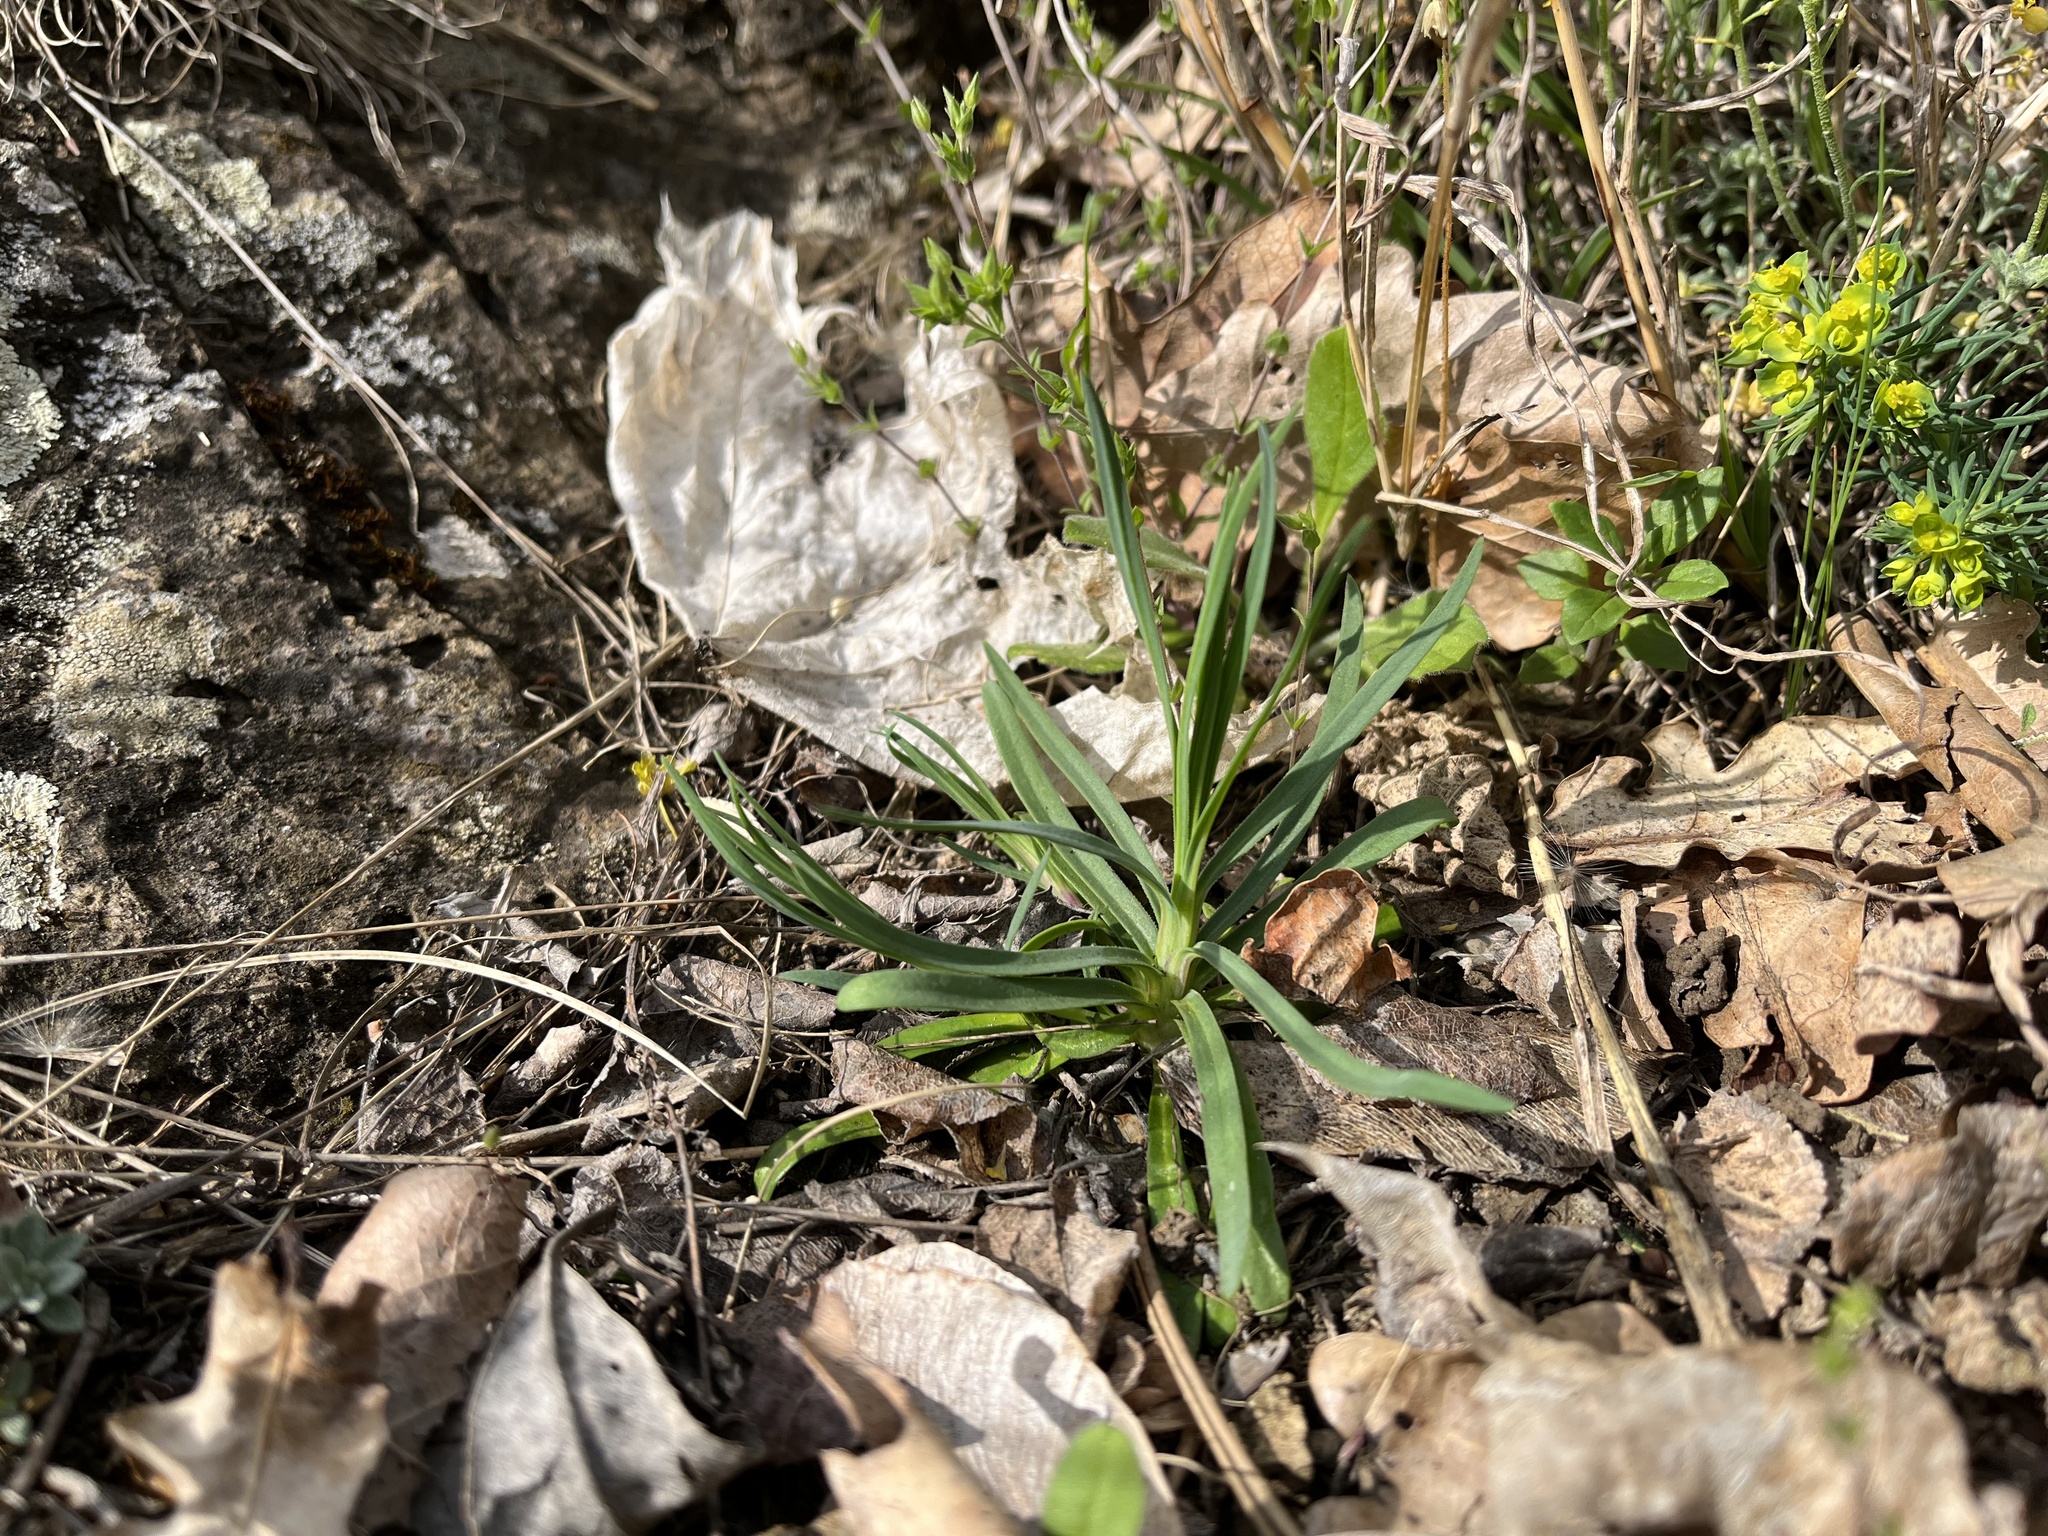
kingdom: Plantae
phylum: Tracheophyta
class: Magnoliopsida
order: Caryophyllales
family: Caryophyllaceae
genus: Rabelera
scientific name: Rabelera holostea
